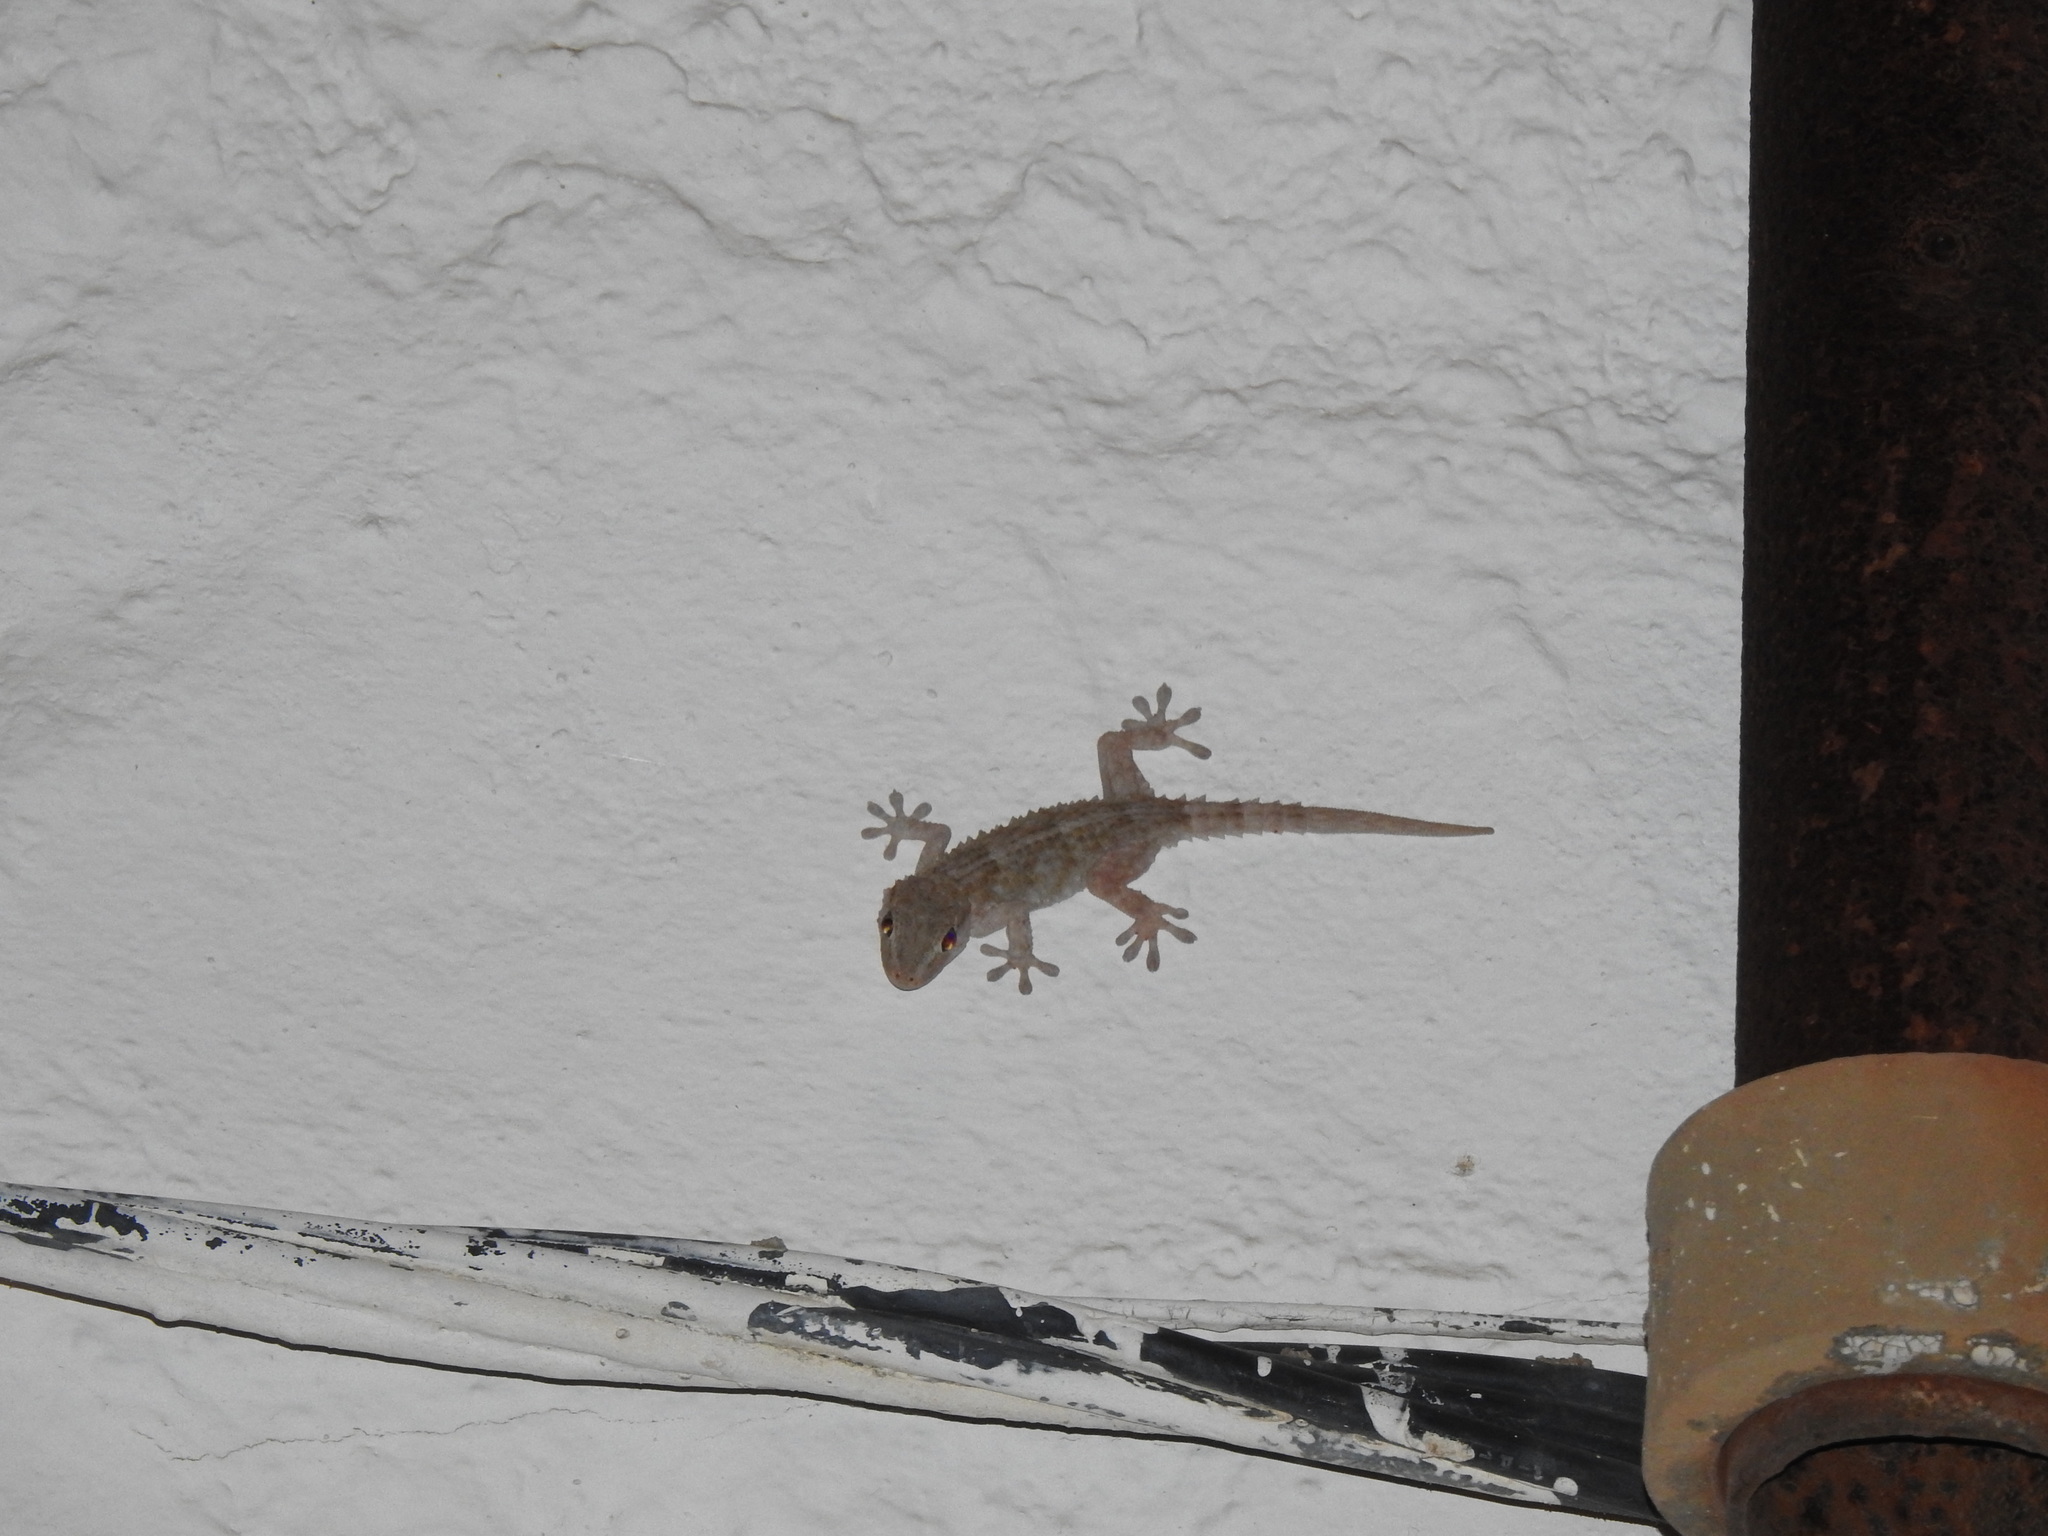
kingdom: Animalia
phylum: Chordata
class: Squamata
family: Phyllodactylidae
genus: Tarentola
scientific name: Tarentola mauritanica
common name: Moorish gecko
